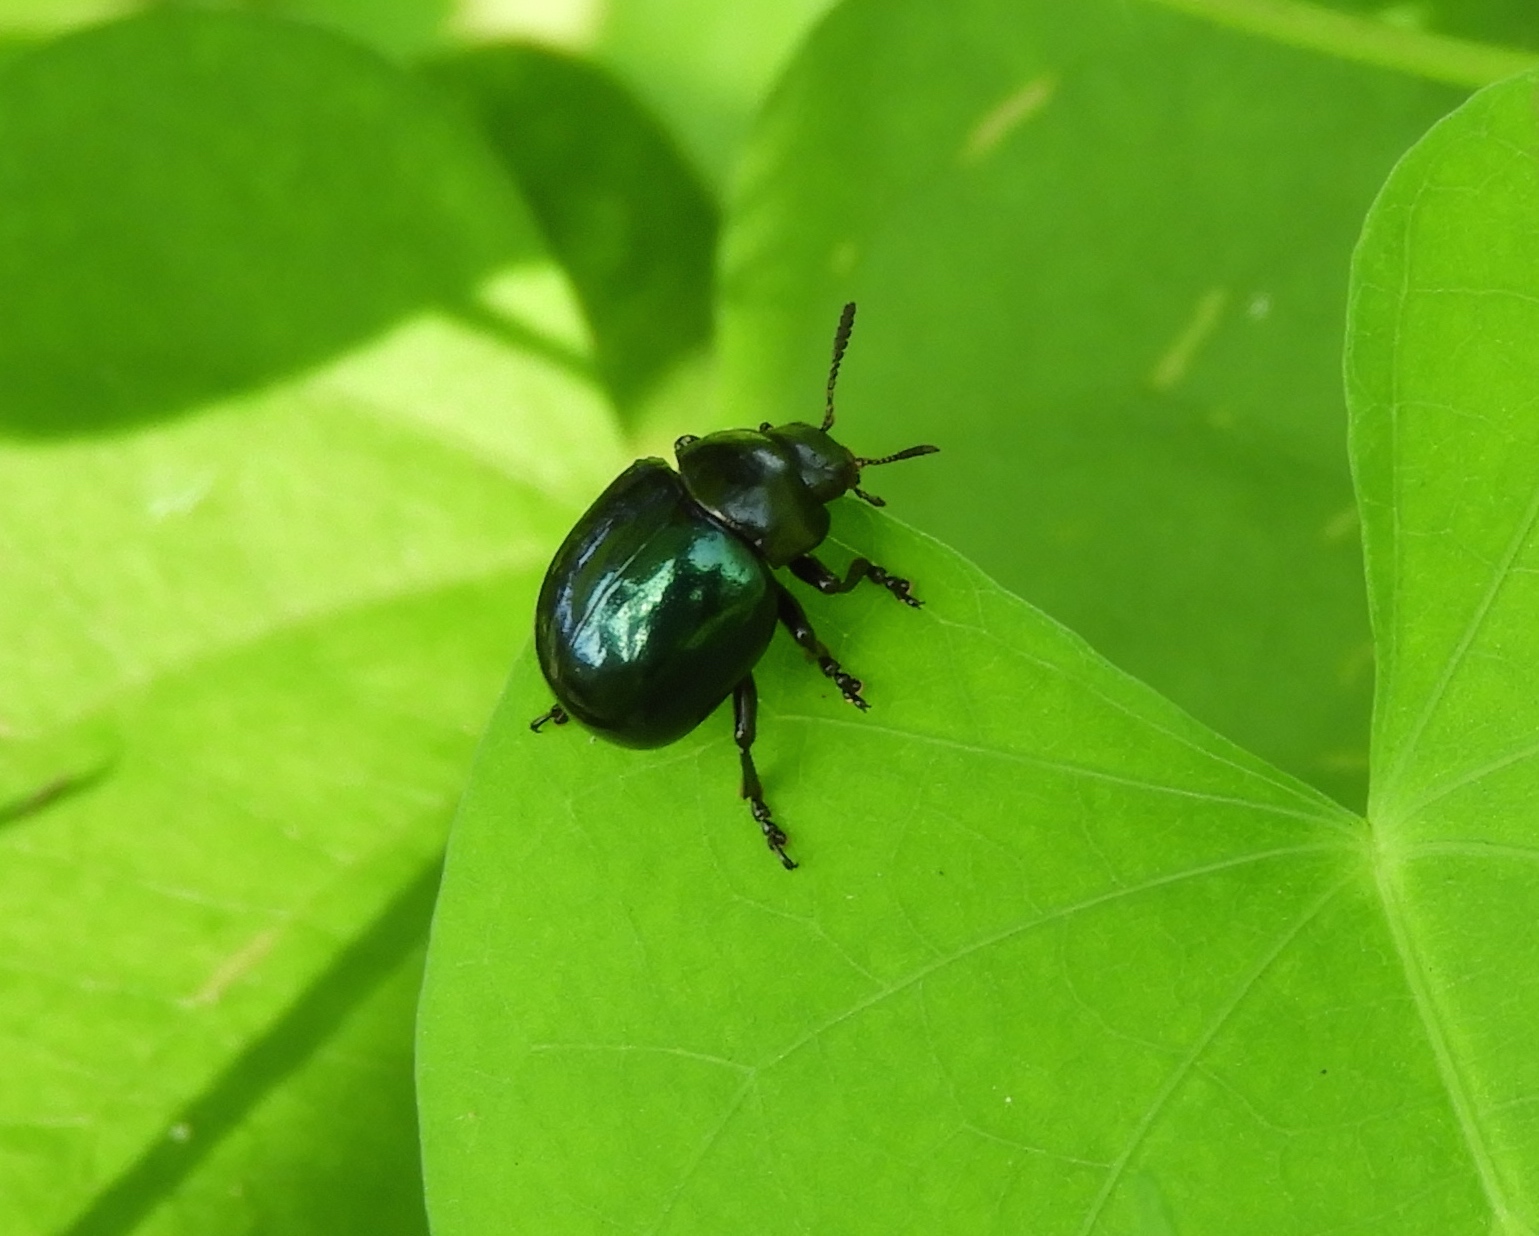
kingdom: Animalia
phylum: Arthropoda
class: Insecta
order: Coleoptera
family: Chrysomelidae
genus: Leptinotarsa
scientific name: Leptinotarsa haldemani
